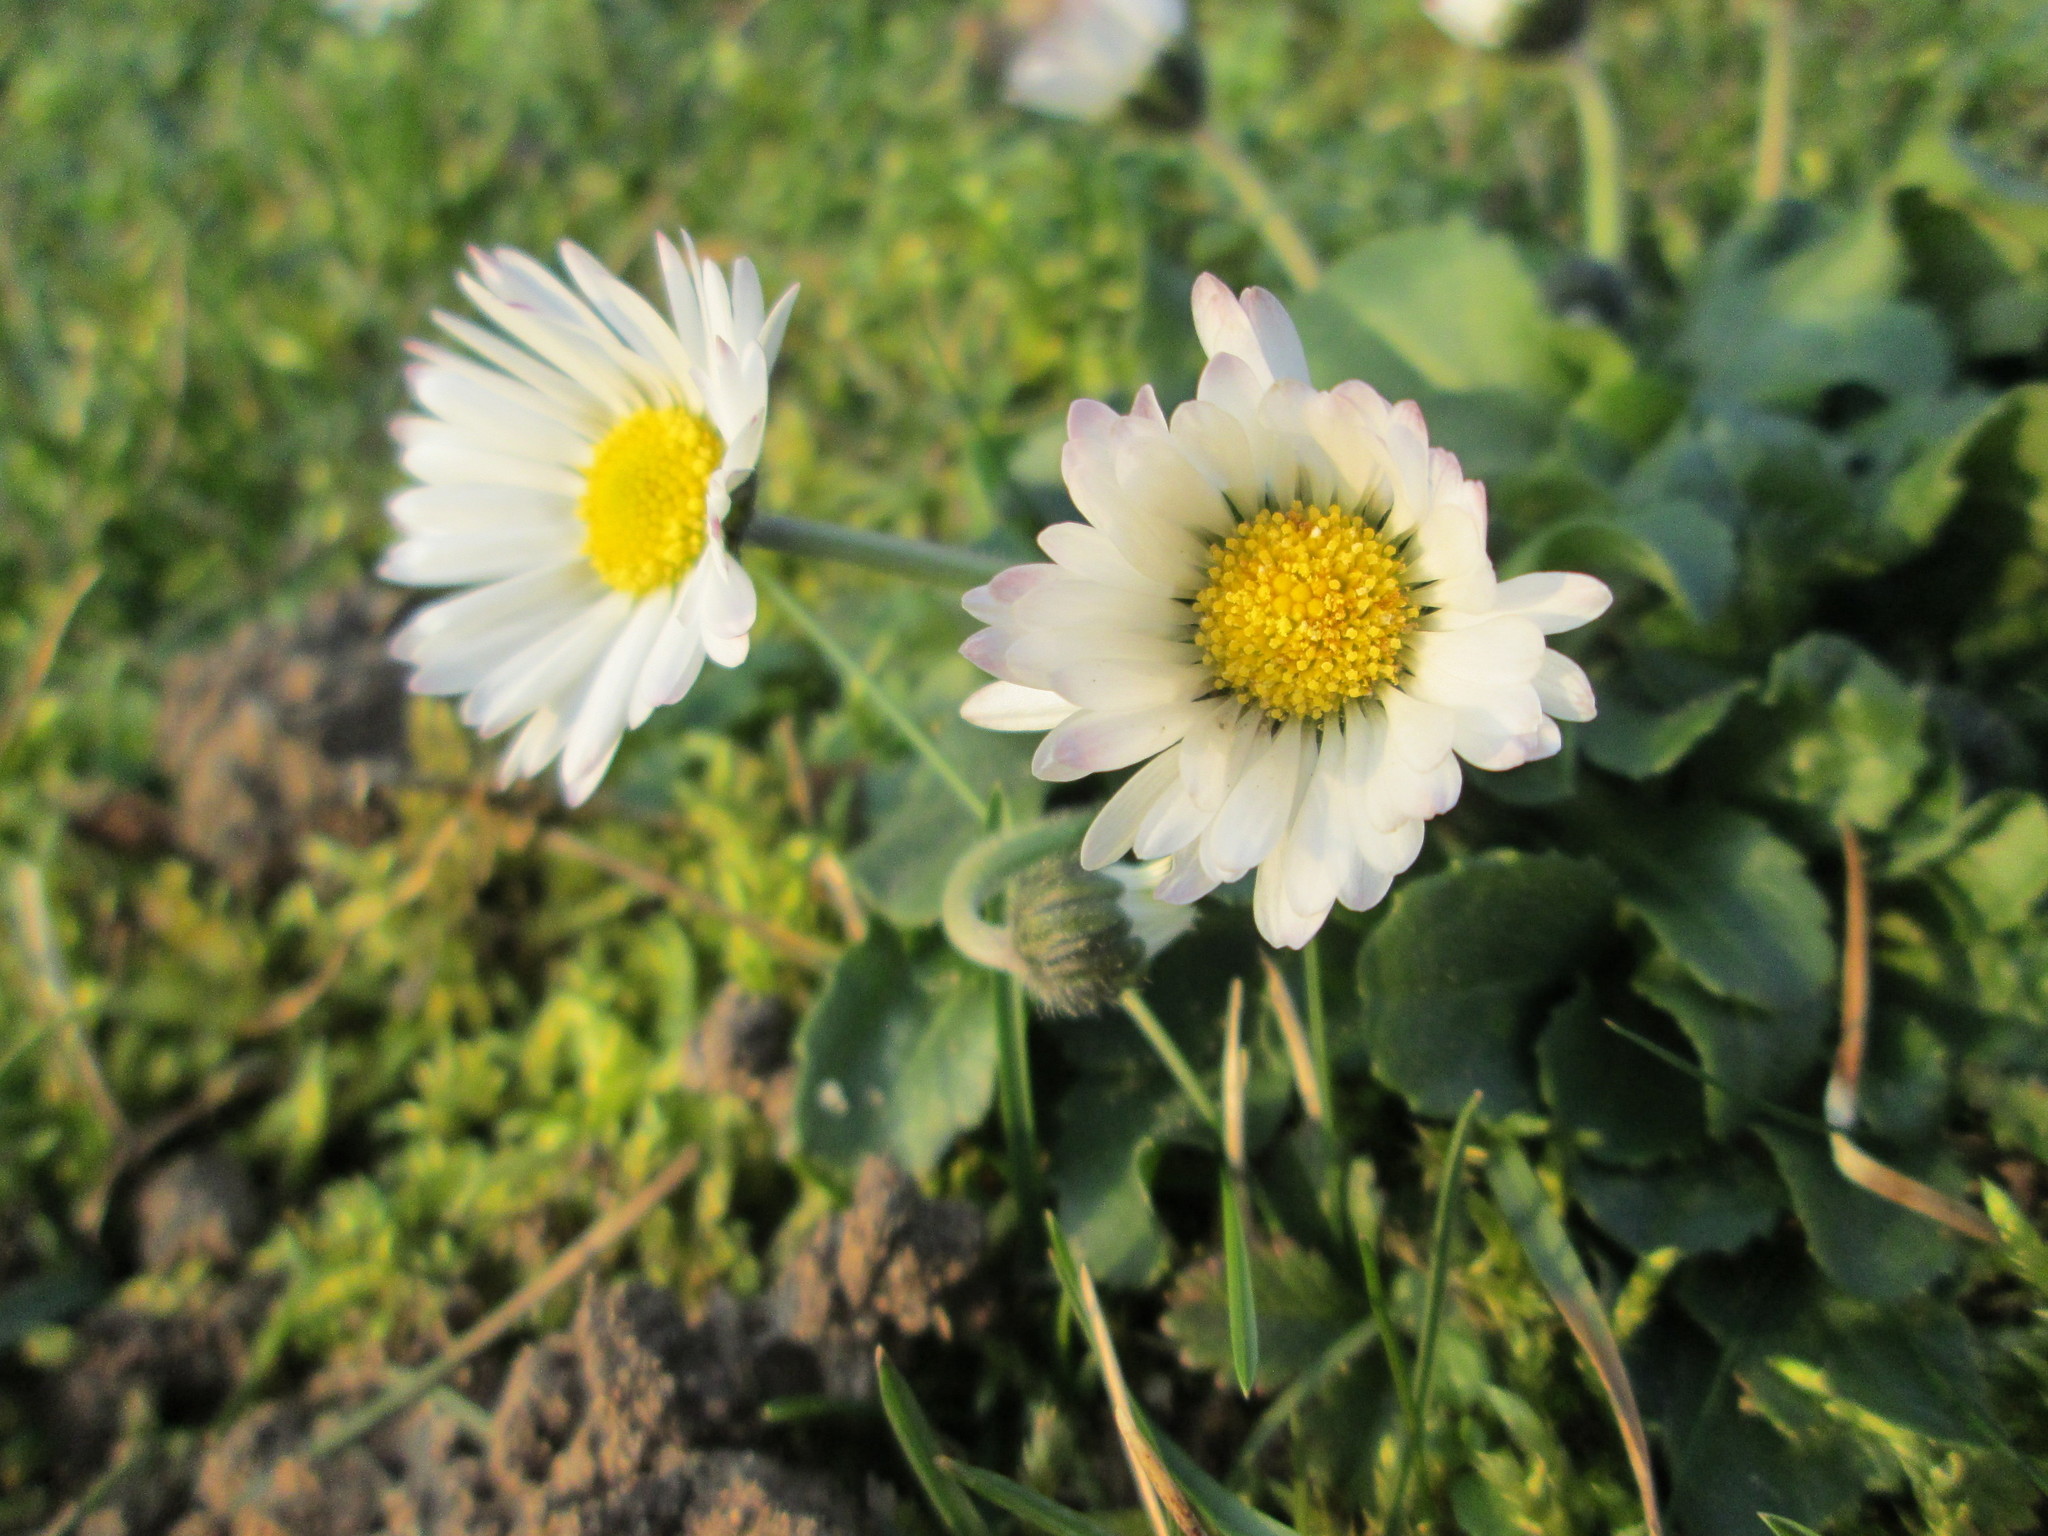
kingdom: Plantae
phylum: Tracheophyta
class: Magnoliopsida
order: Asterales
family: Asteraceae
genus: Bellis
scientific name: Bellis perennis
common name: Lawndaisy
